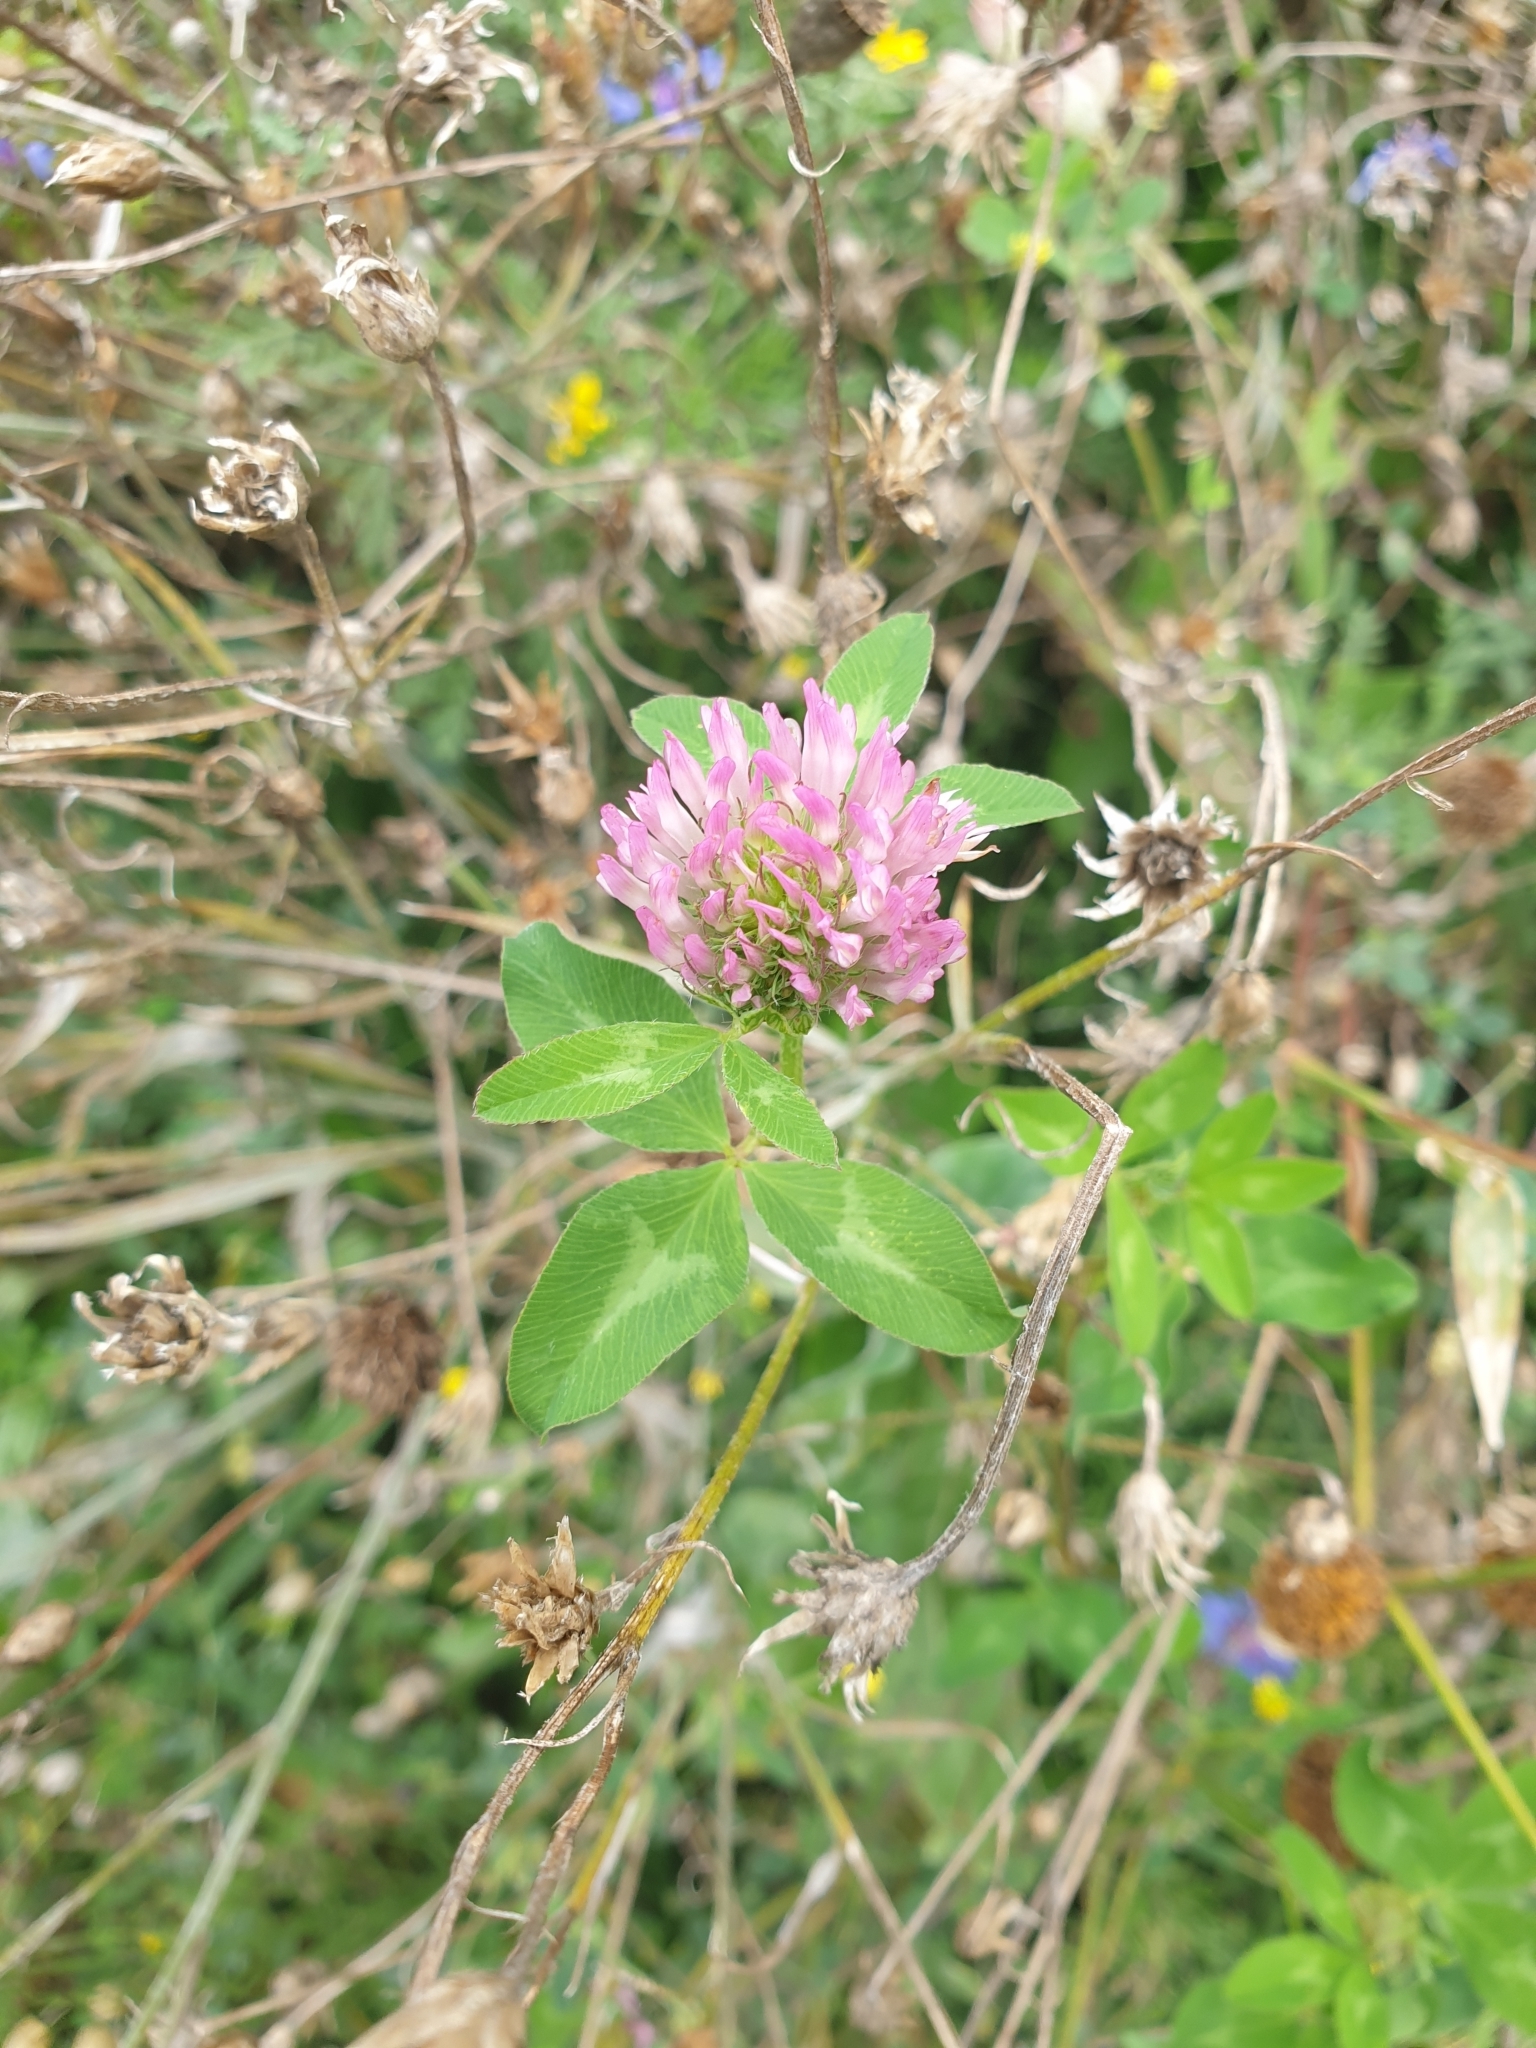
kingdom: Plantae
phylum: Tracheophyta
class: Magnoliopsida
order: Fabales
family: Fabaceae
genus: Trifolium
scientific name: Trifolium pratense
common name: Red clover
